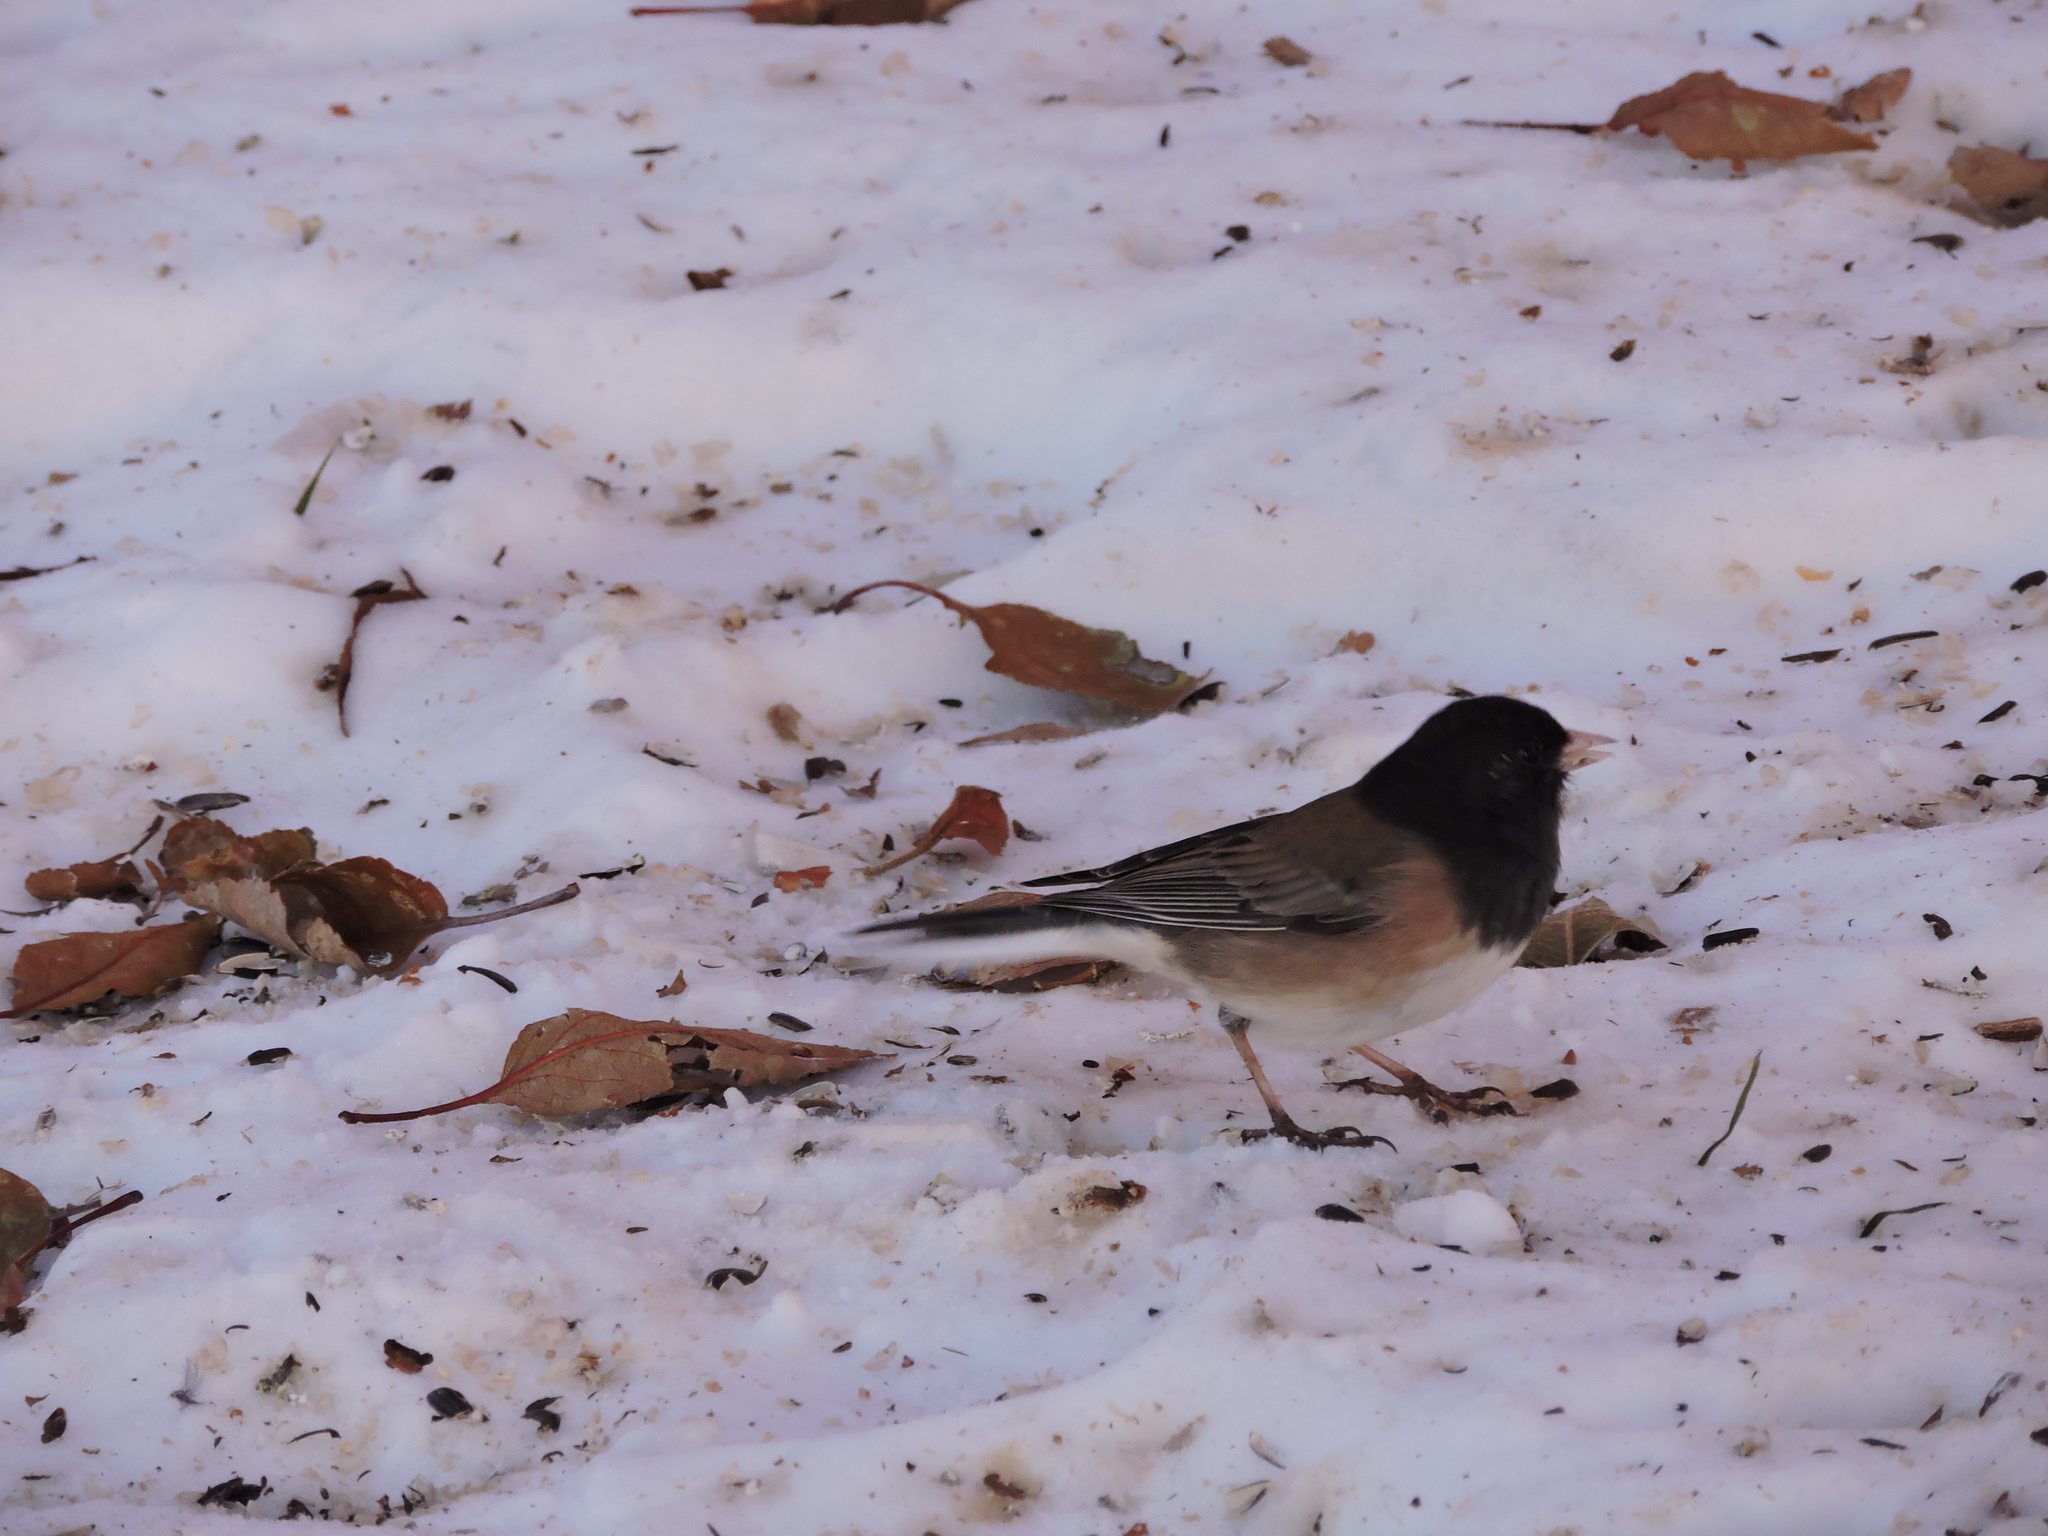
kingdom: Animalia
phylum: Chordata
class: Aves
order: Passeriformes
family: Passerellidae
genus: Junco
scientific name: Junco hyemalis
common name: Dark-eyed junco
